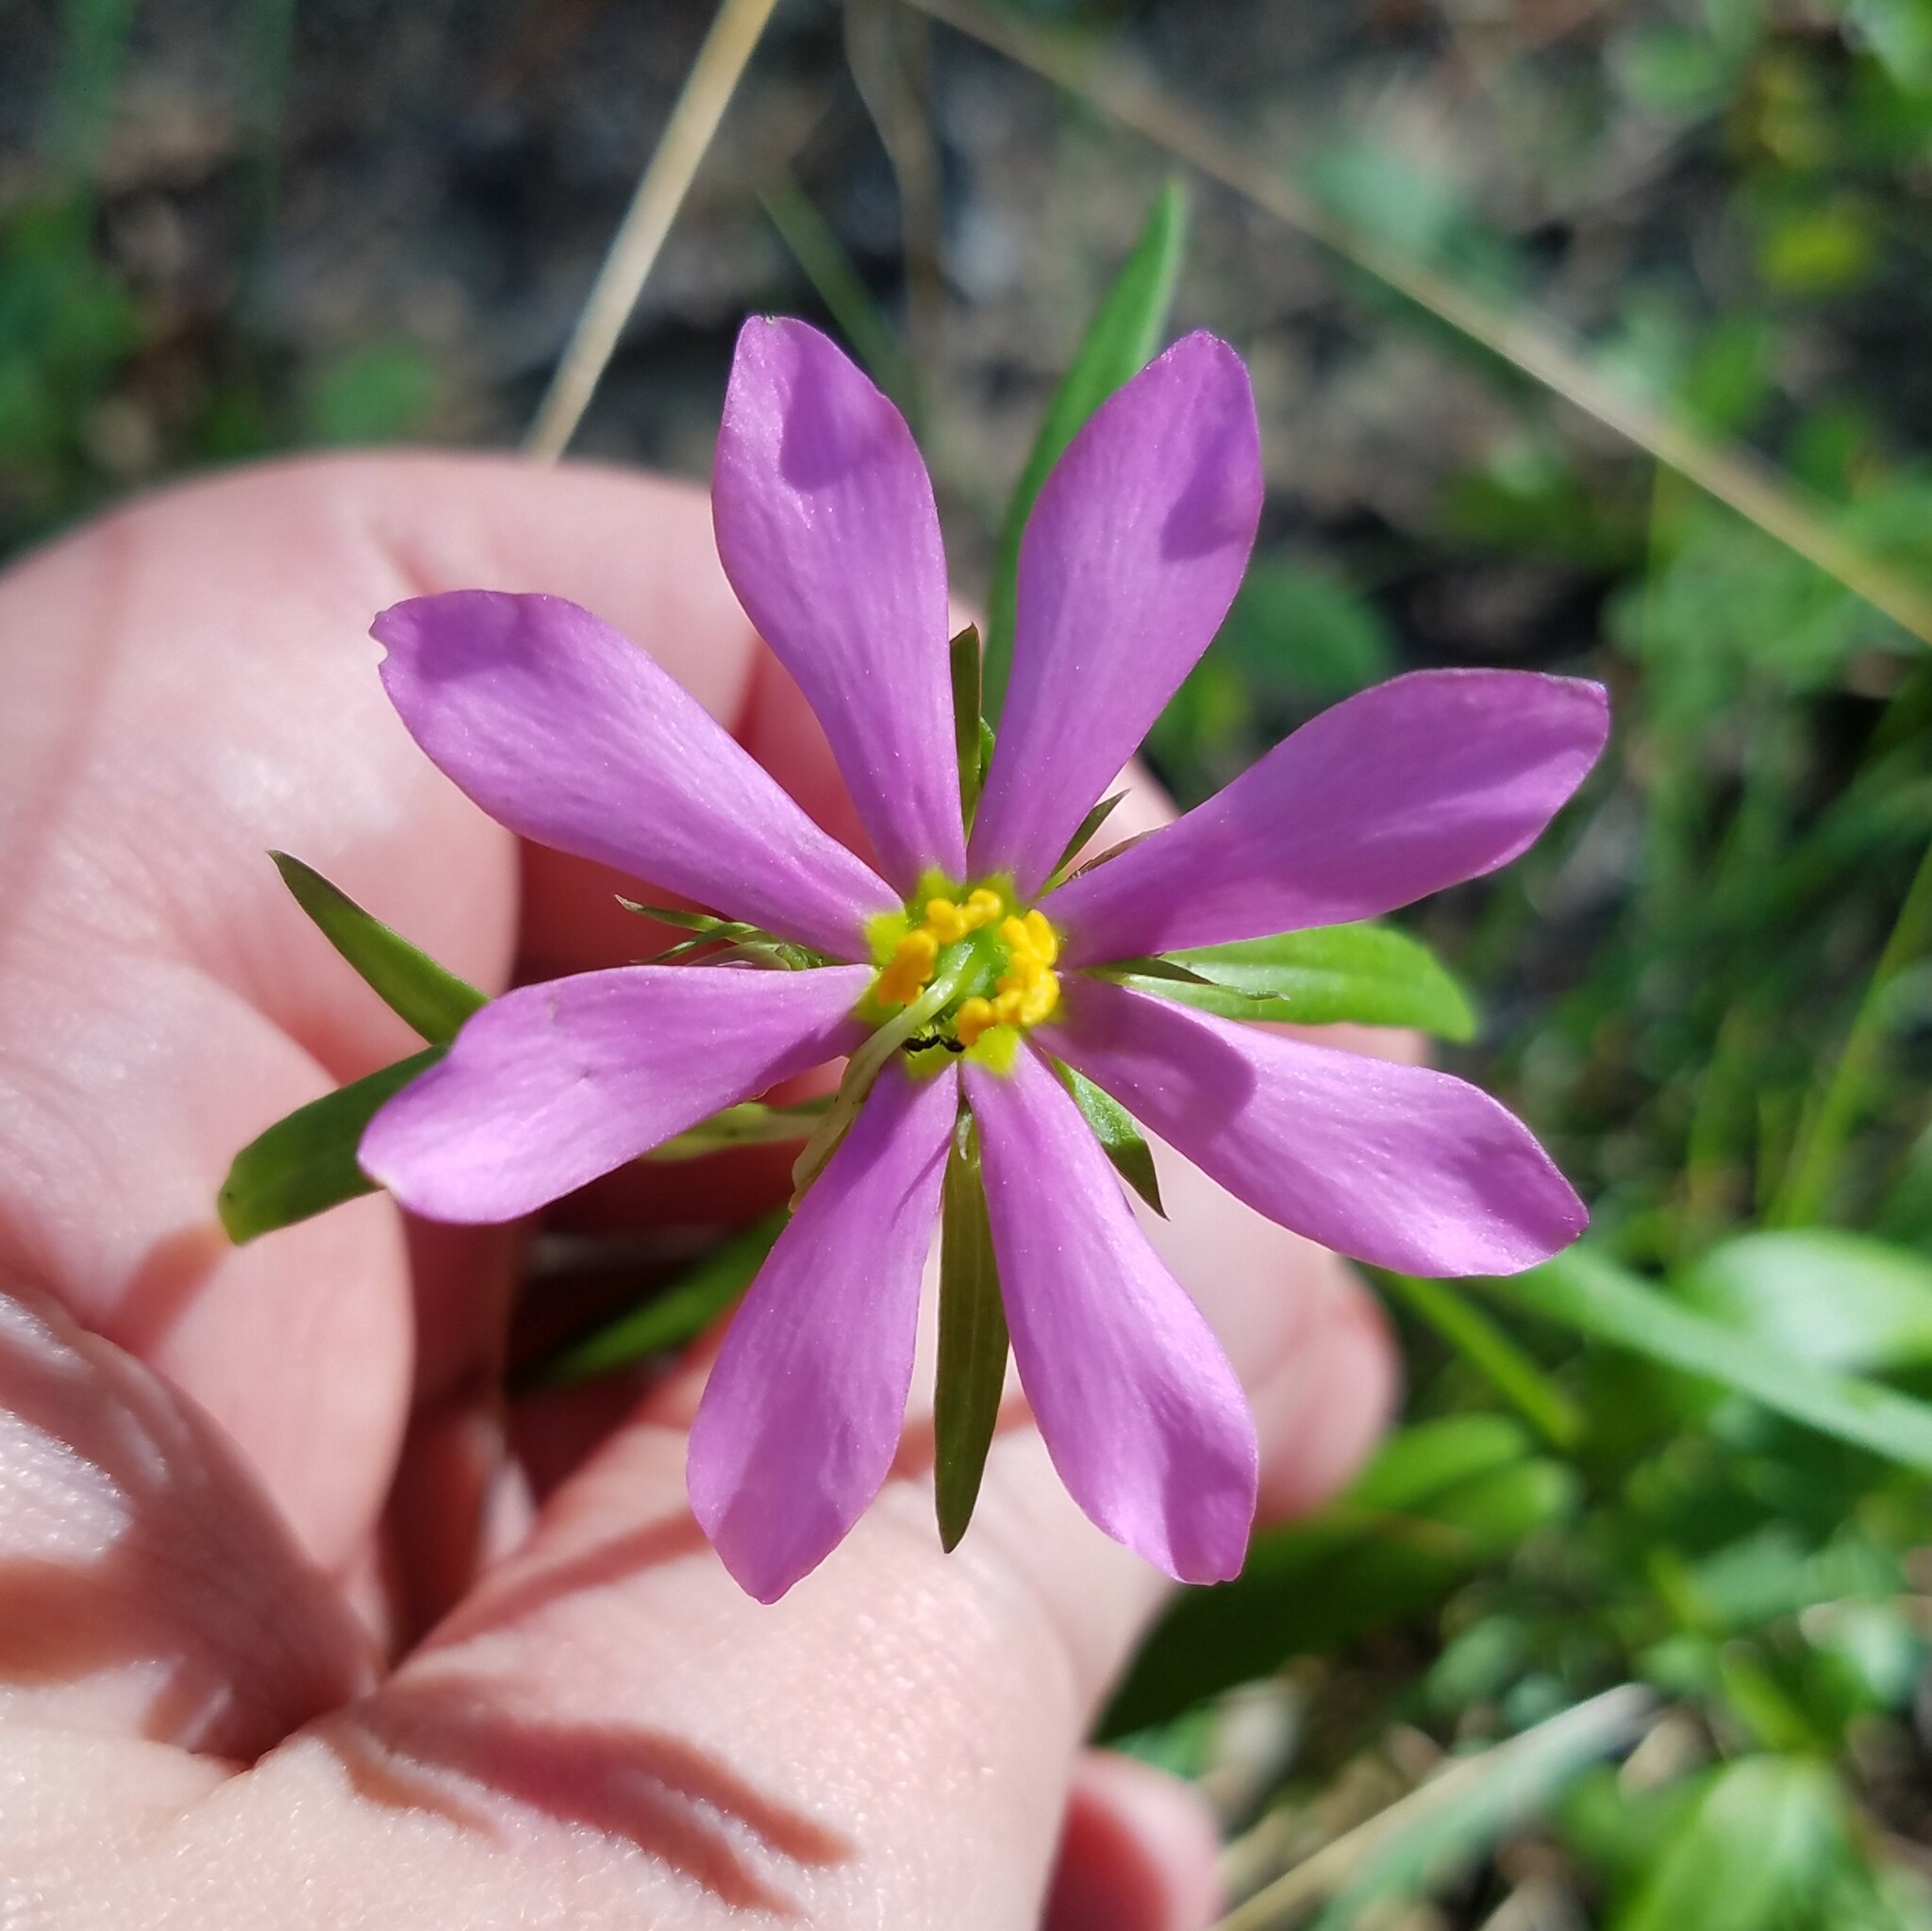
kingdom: Plantae
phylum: Tracheophyta
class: Magnoliopsida
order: Gentianales
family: Gentianaceae
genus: Sabatia
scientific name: Sabatia capitata
